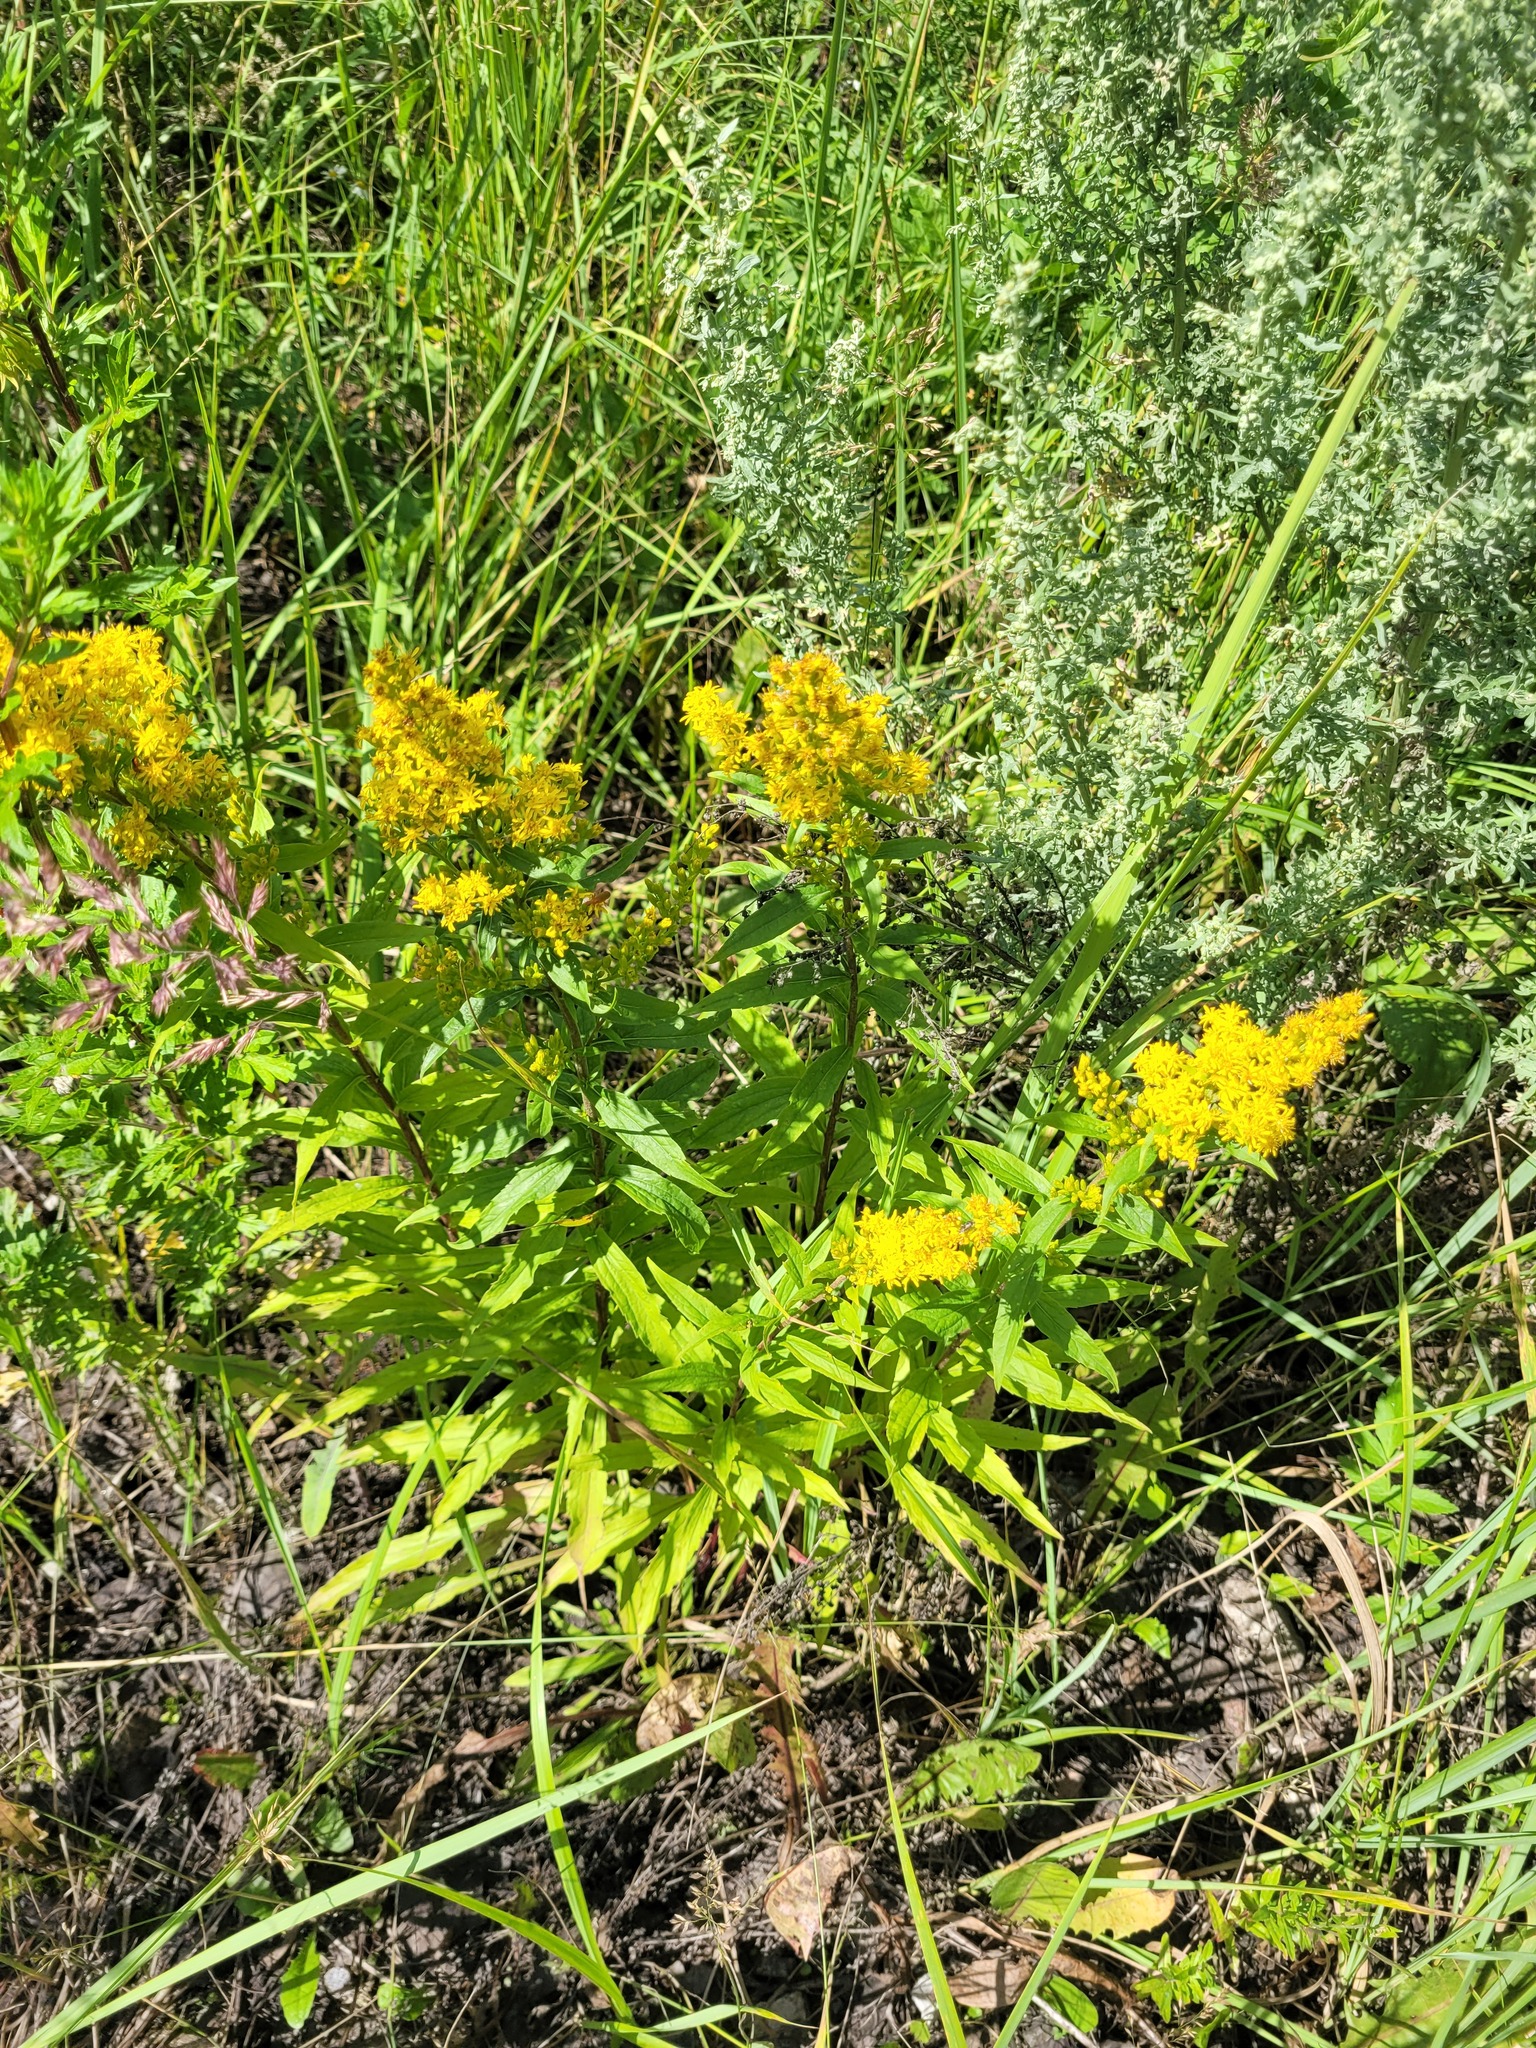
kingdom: Plantae
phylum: Tracheophyta
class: Magnoliopsida
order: Asterales
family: Asteraceae
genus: Solidago
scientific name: Solidago niederederi
